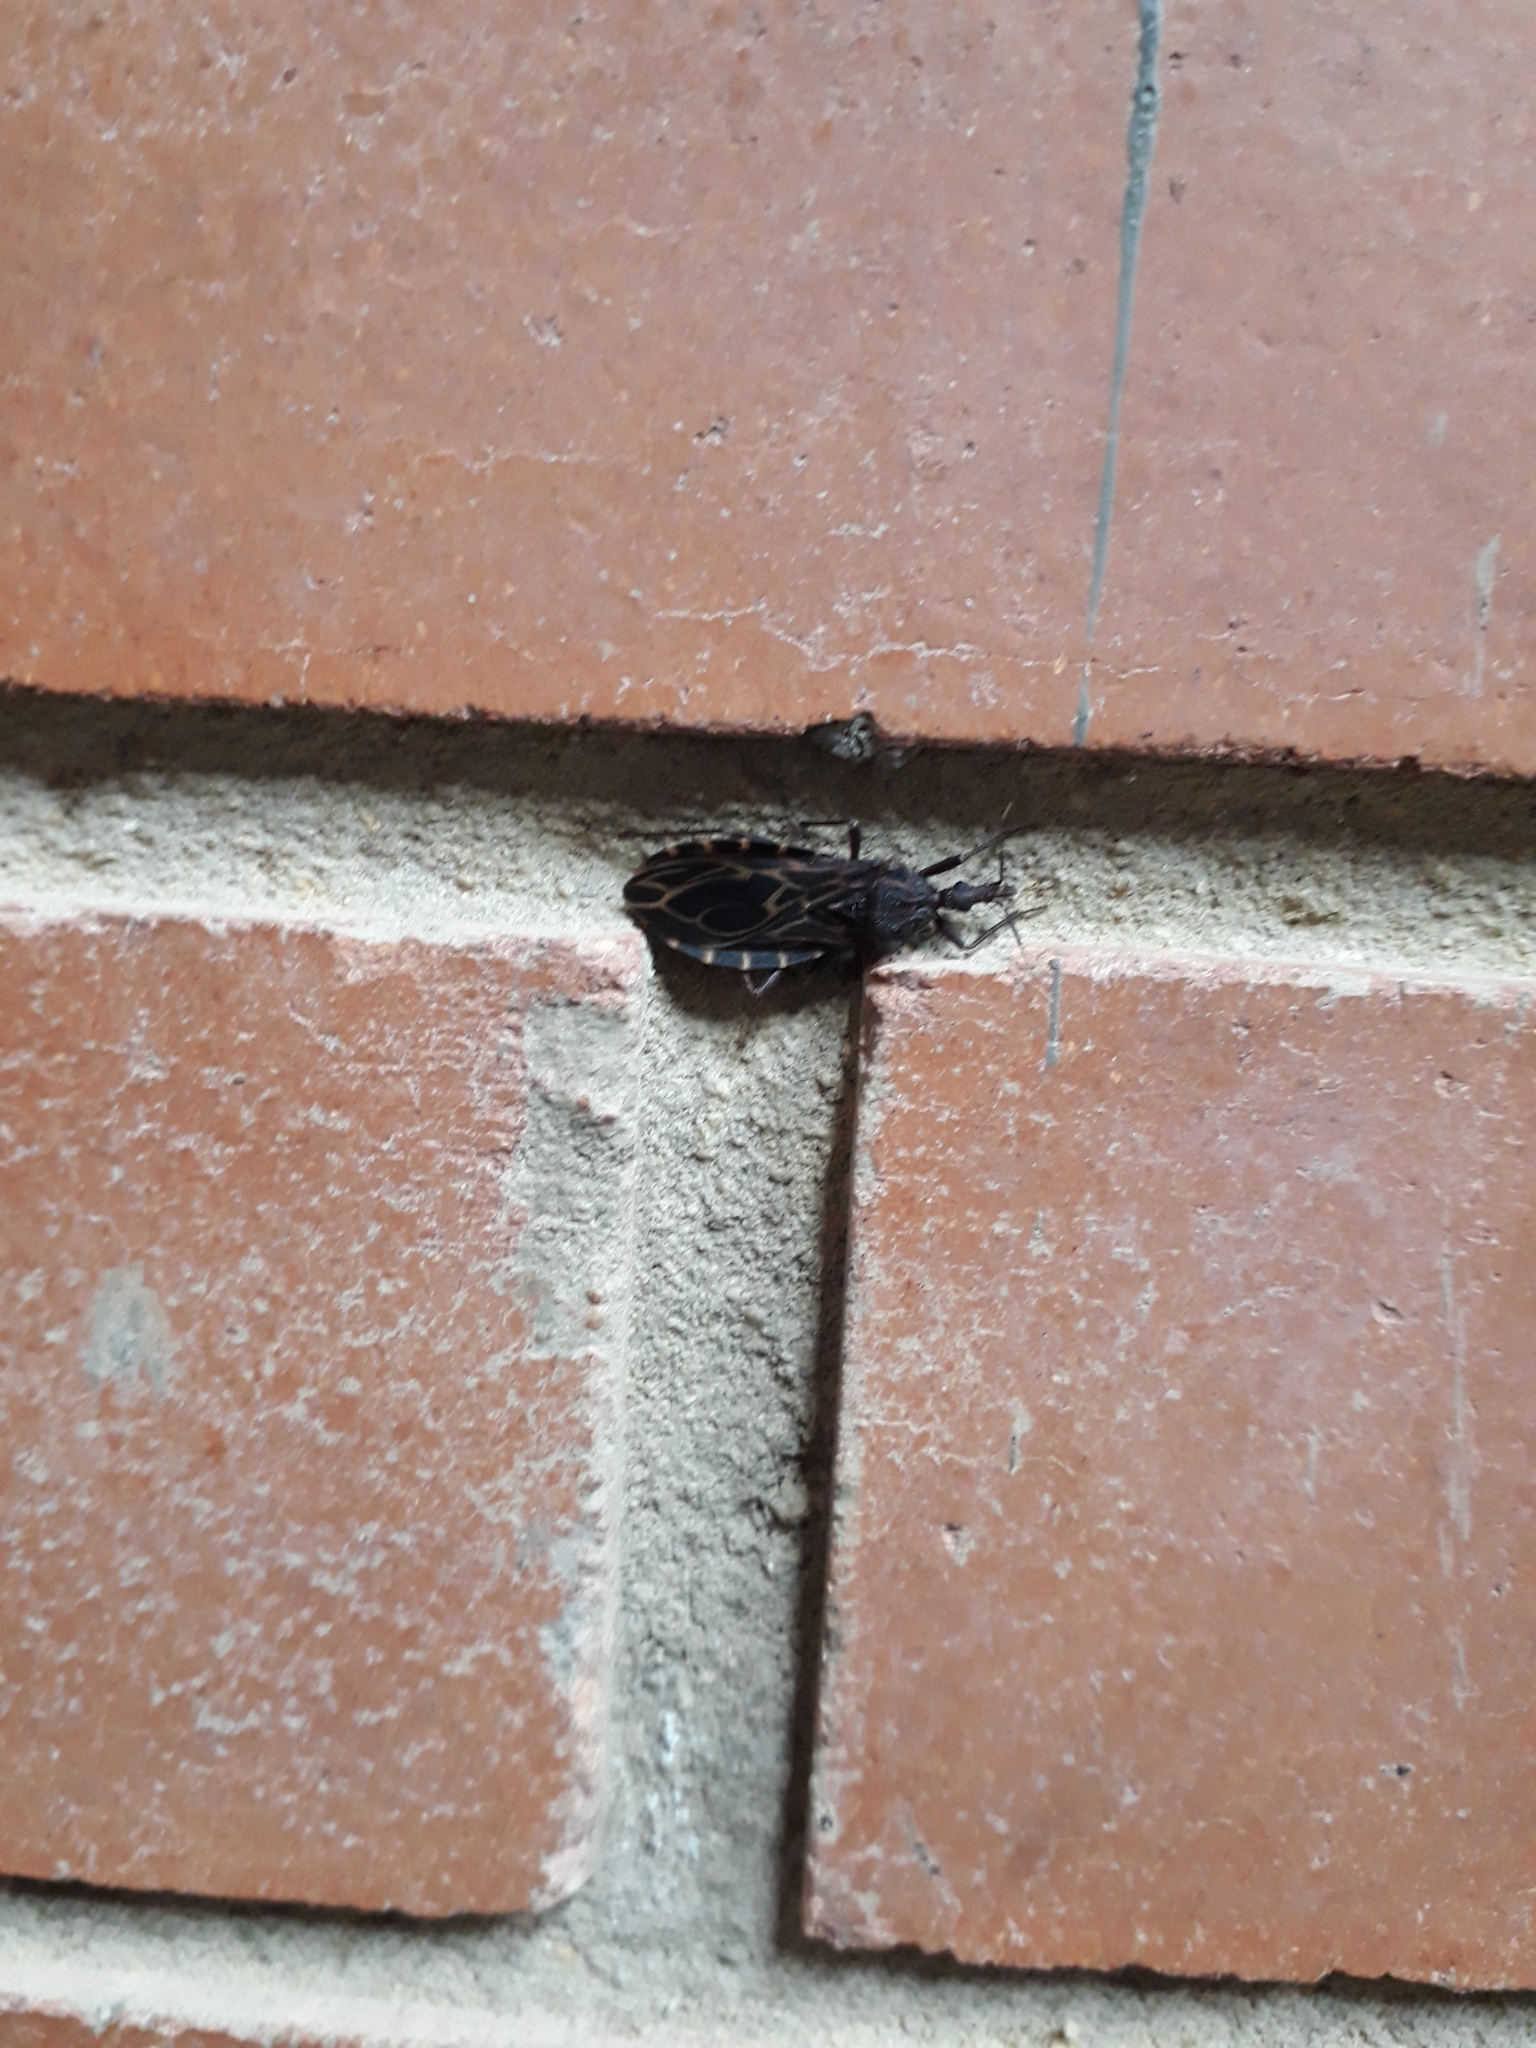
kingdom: Animalia
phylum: Arthropoda
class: Insecta
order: Hemiptera
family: Reduviidae
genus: Triatoma
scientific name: Triatoma venosa
